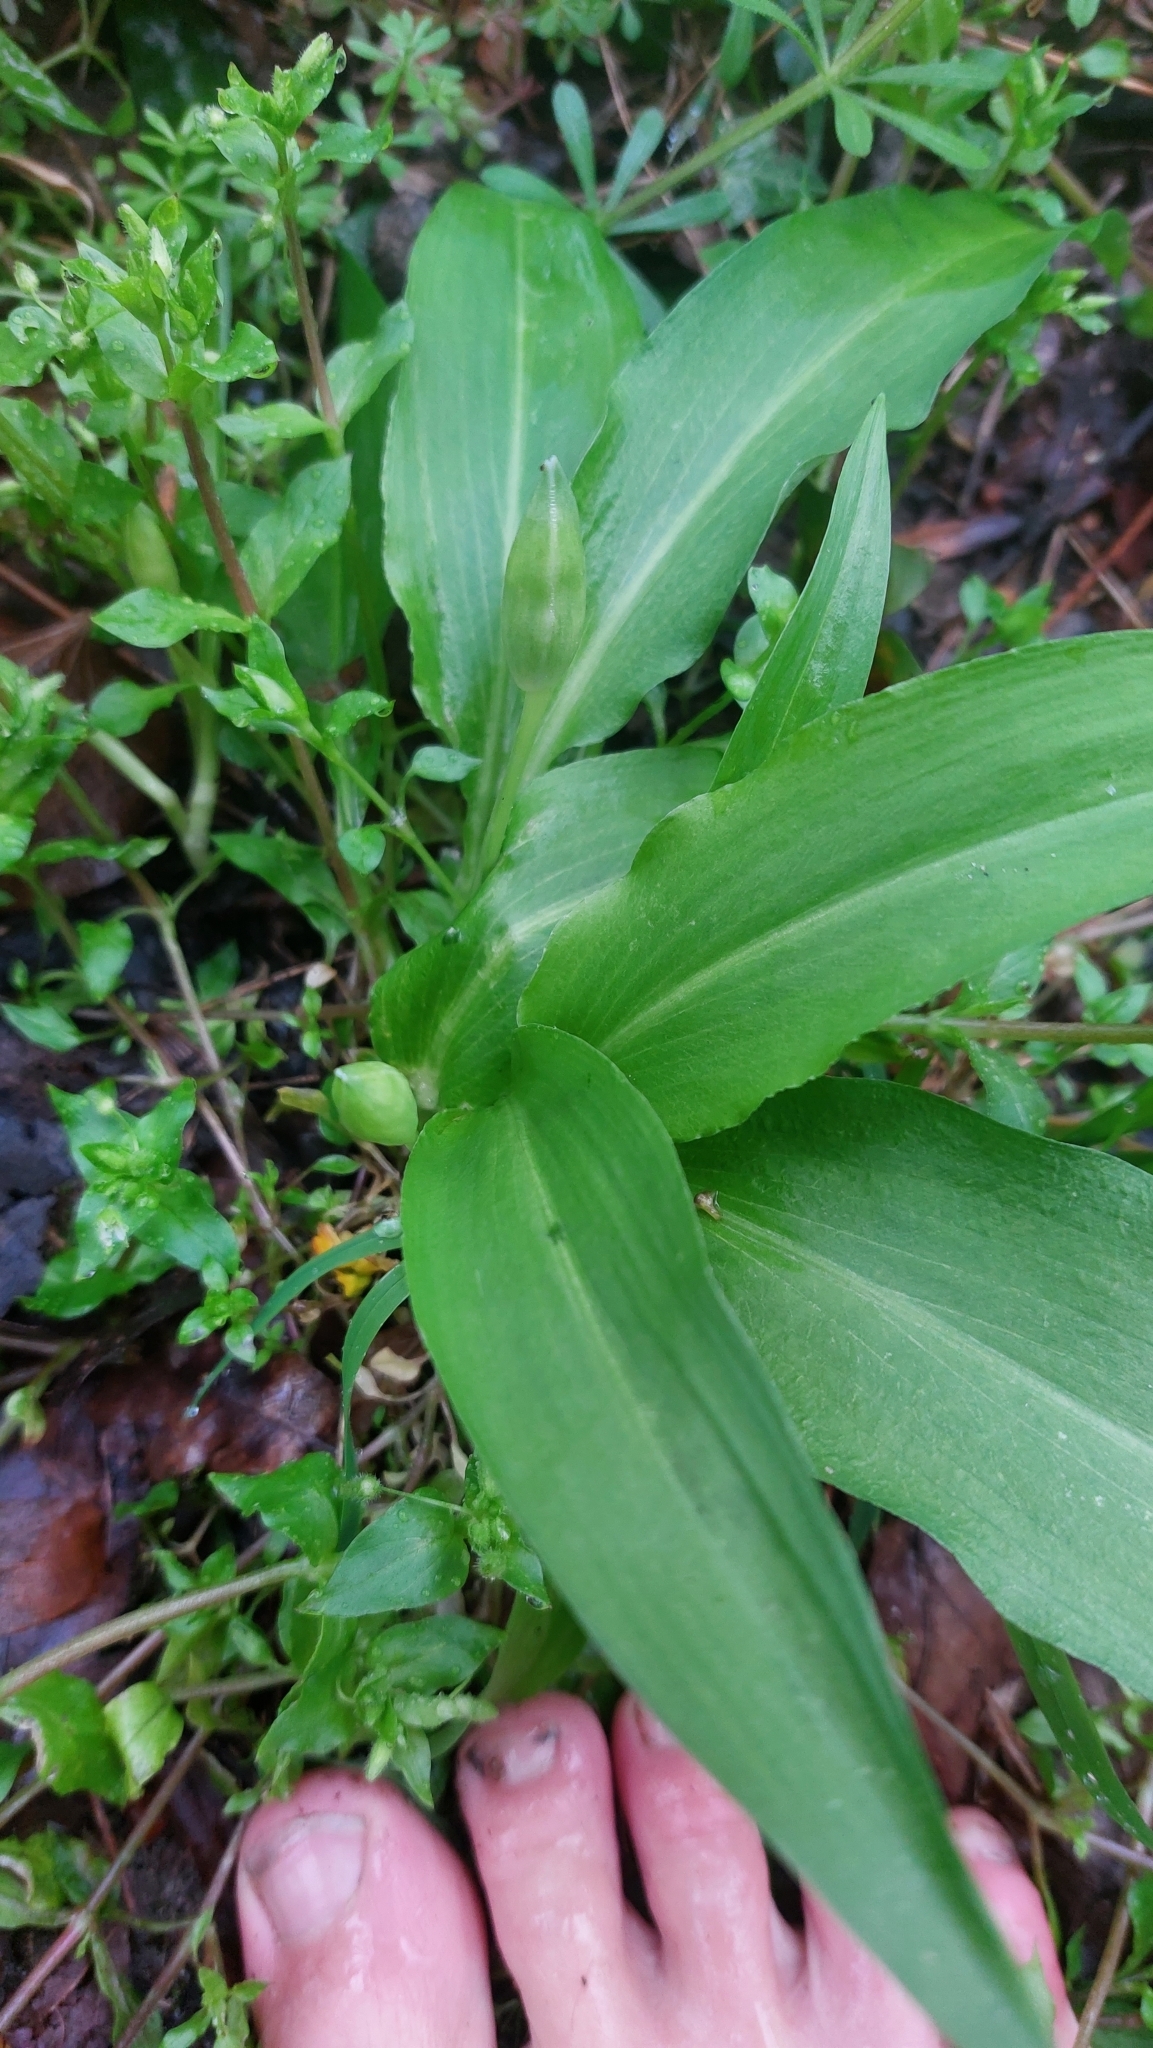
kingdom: Plantae
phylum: Tracheophyta
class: Liliopsida
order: Asparagales
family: Amaryllidaceae
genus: Allium
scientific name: Allium ursinum
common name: Ramsons
